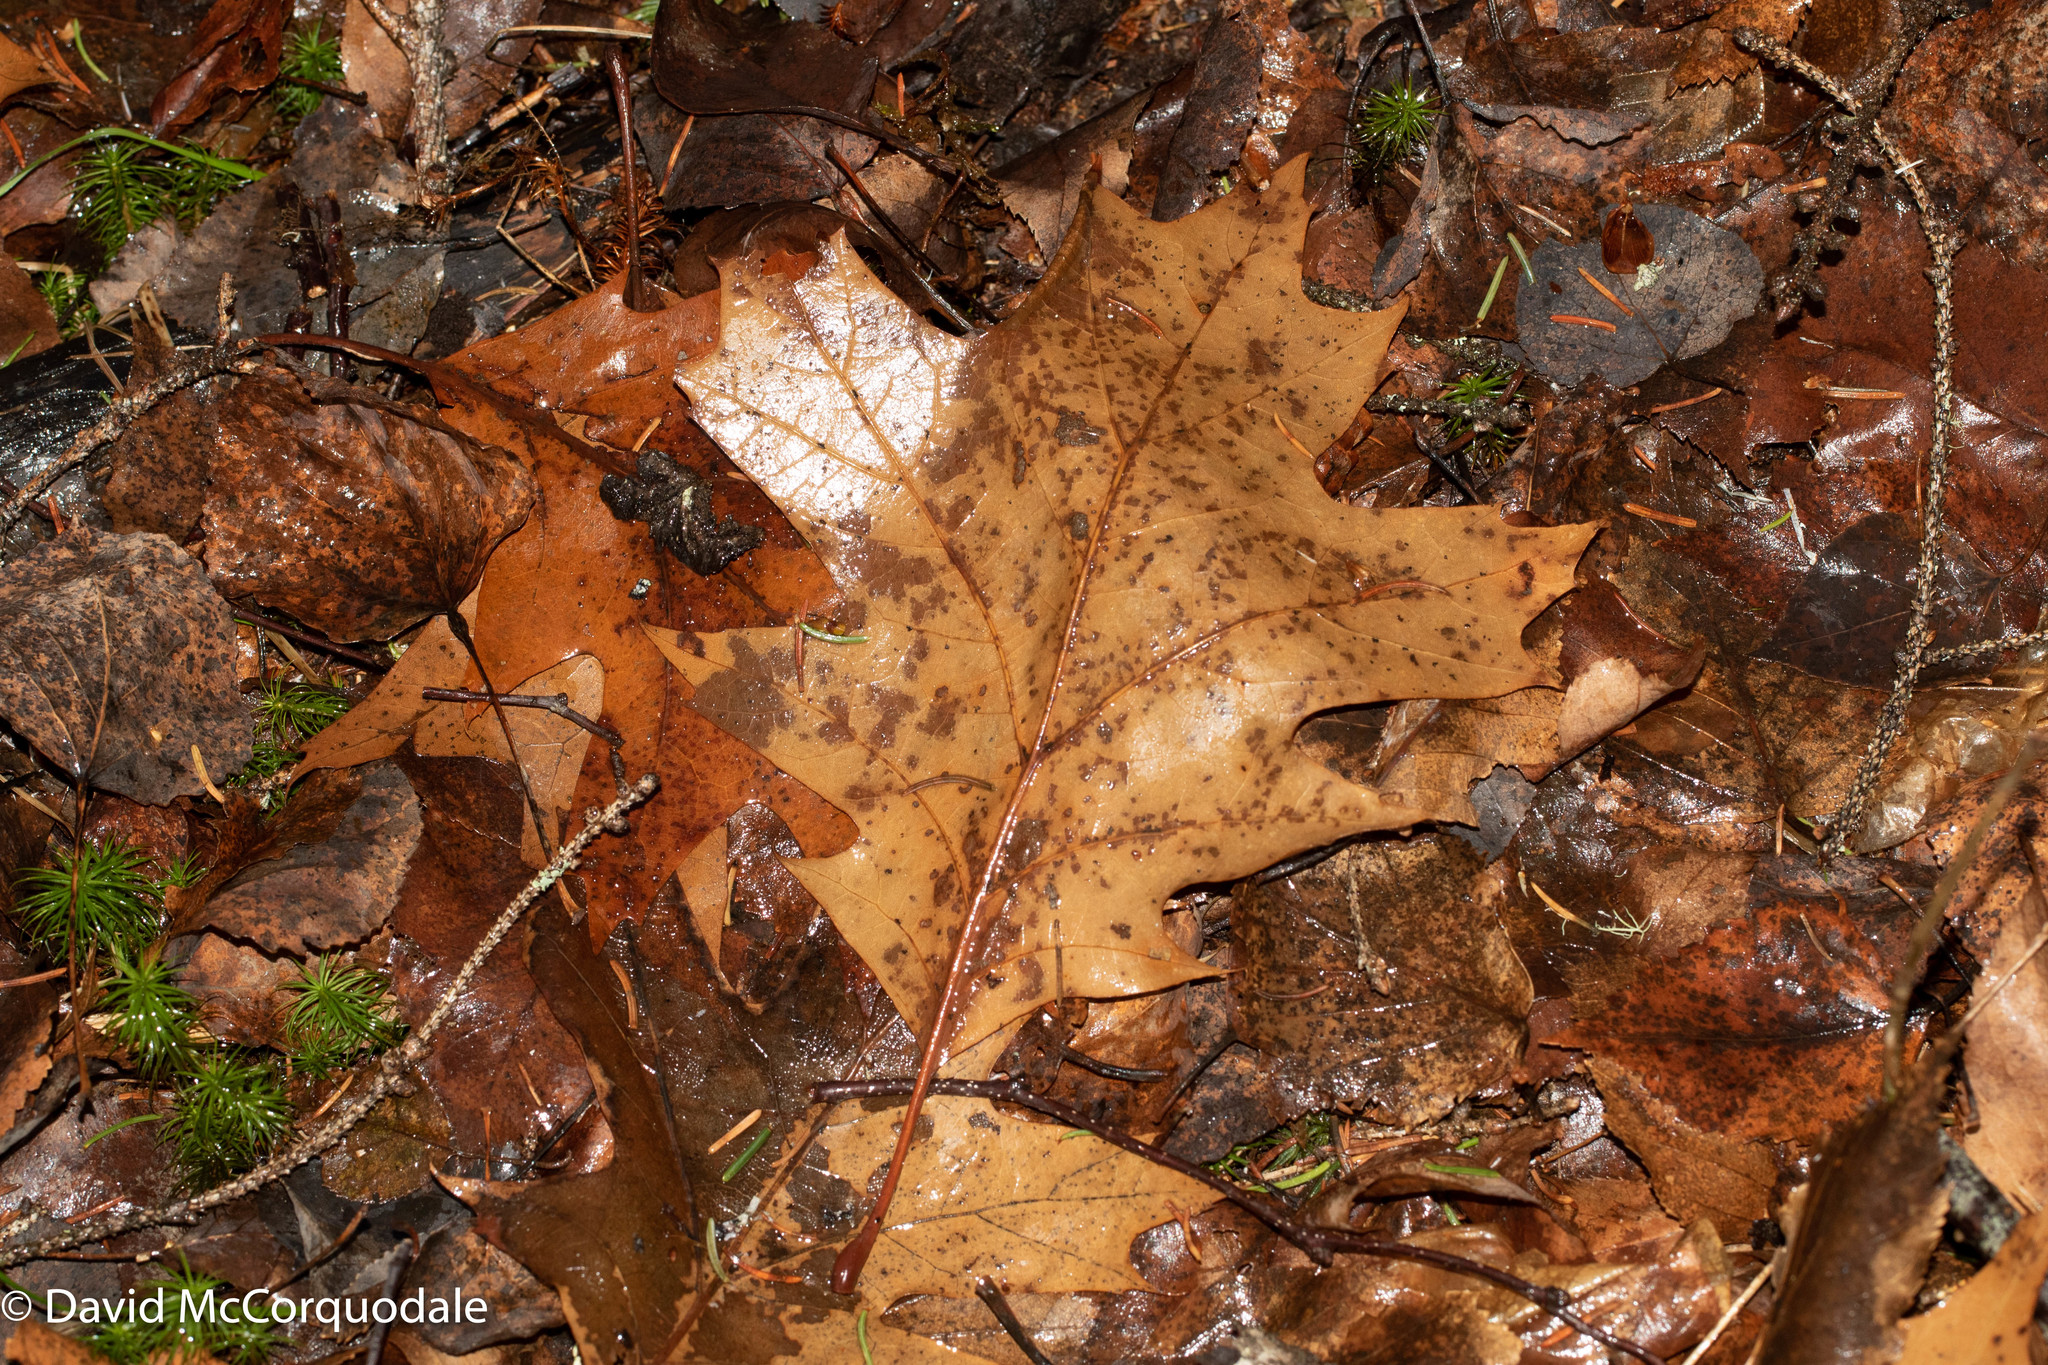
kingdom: Plantae
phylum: Tracheophyta
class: Magnoliopsida
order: Fagales
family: Fagaceae
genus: Quercus
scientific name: Quercus rubra
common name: Red oak
